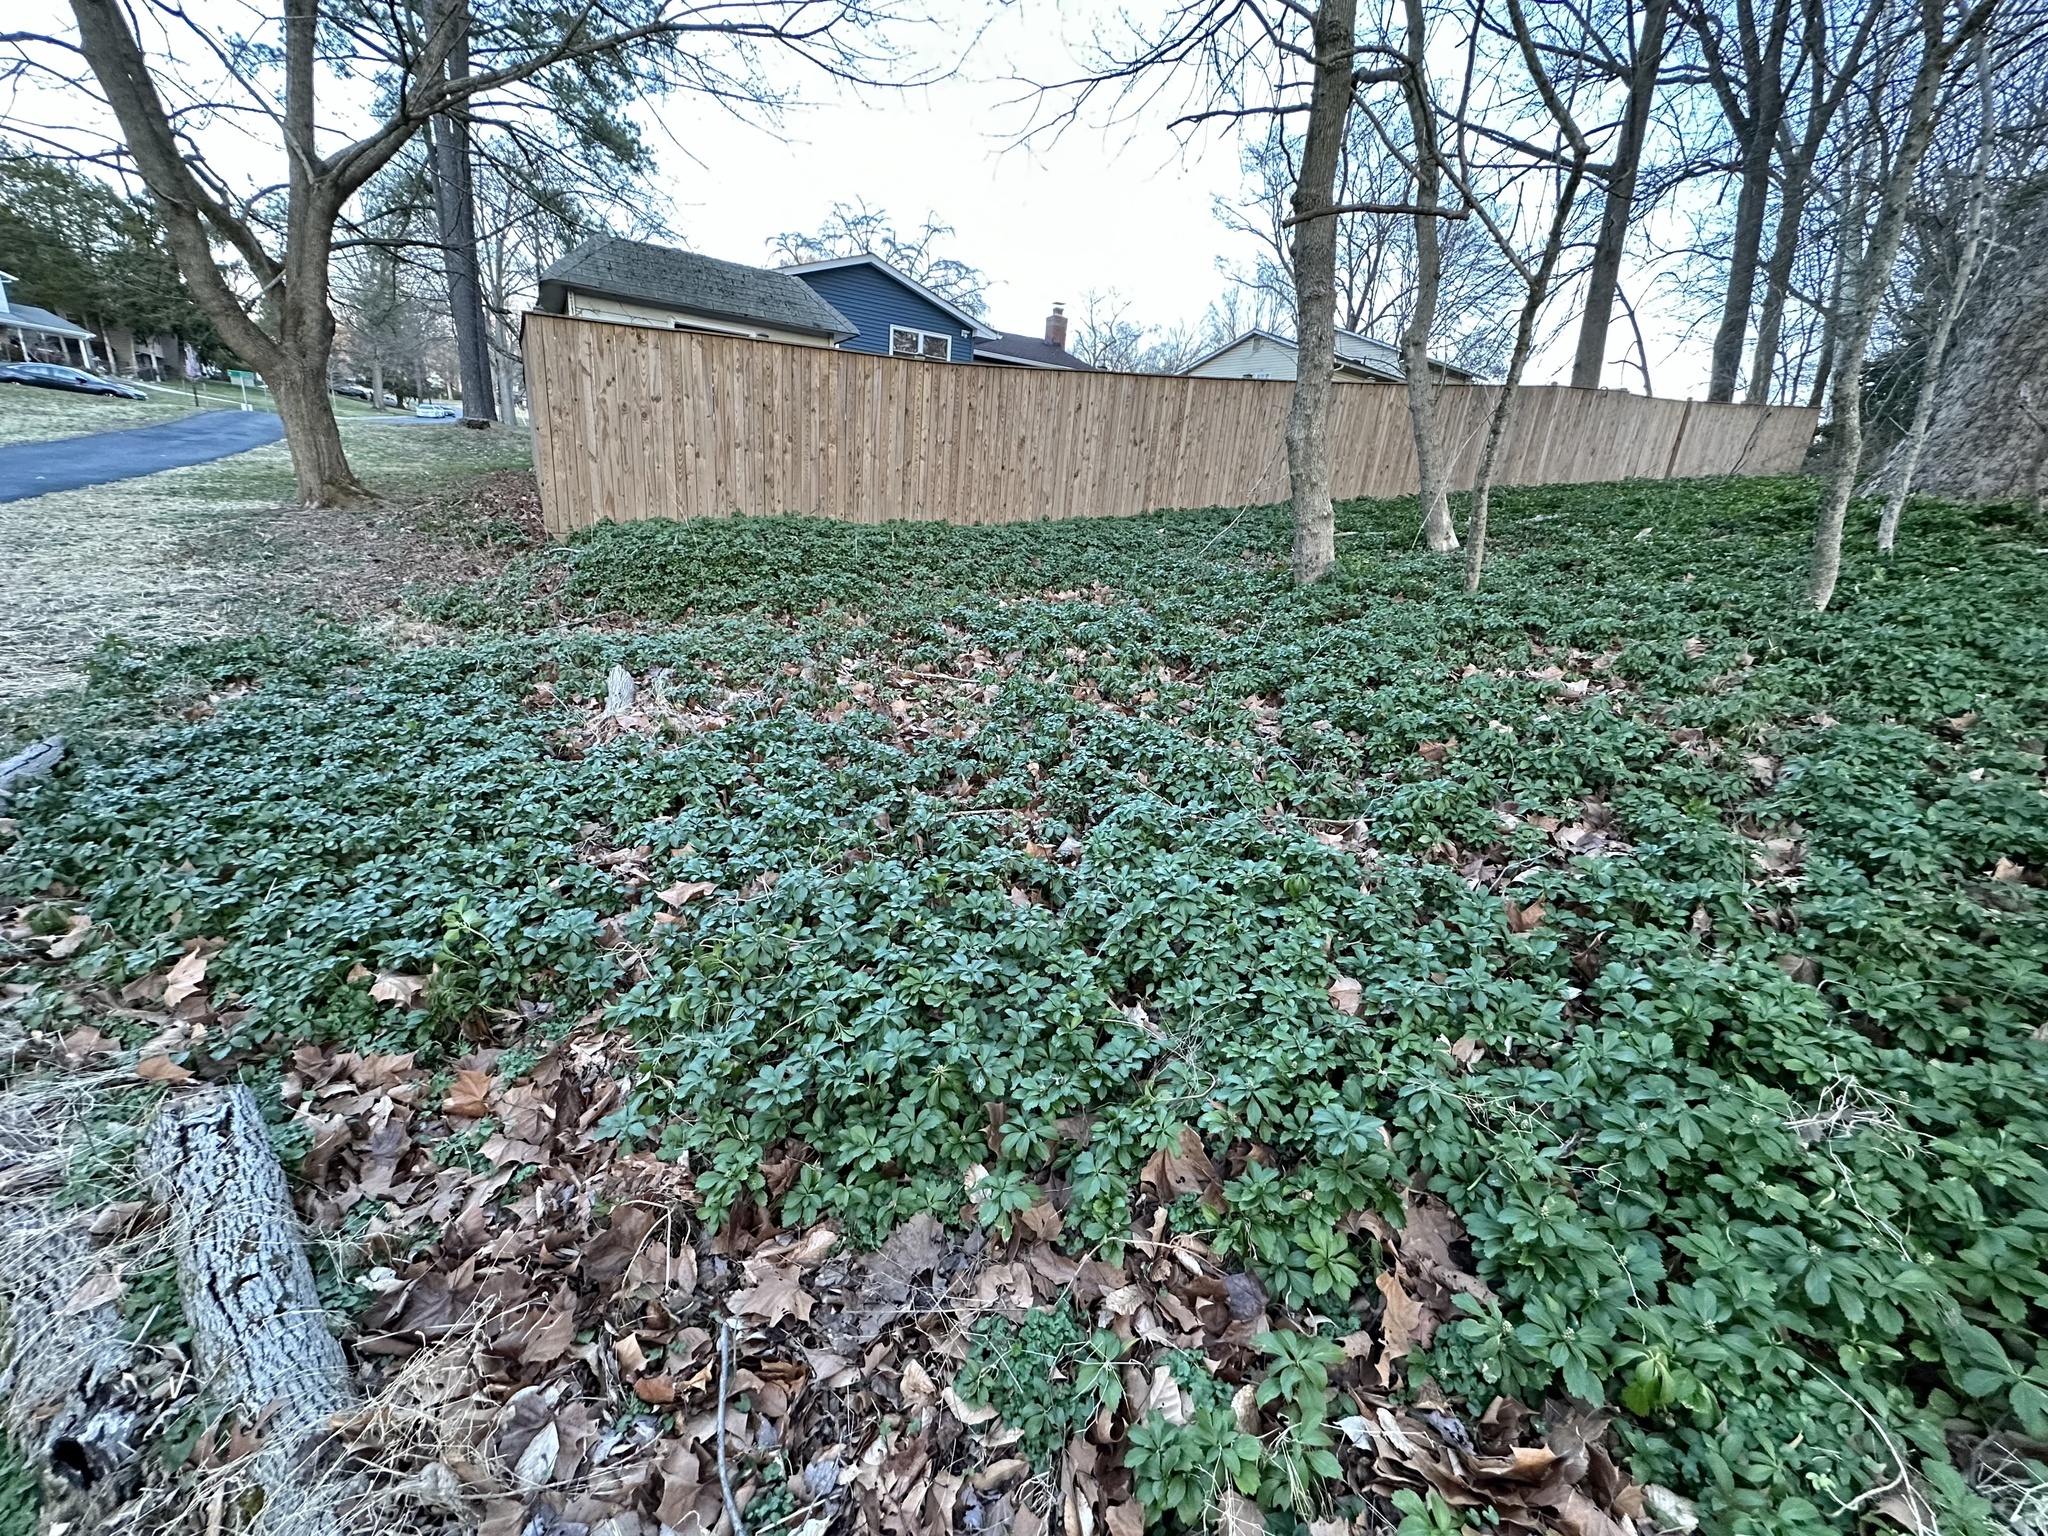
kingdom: Plantae
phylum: Tracheophyta
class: Magnoliopsida
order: Buxales
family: Buxaceae
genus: Pachysandra
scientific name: Pachysandra terminalis
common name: Japanese pachysandra
